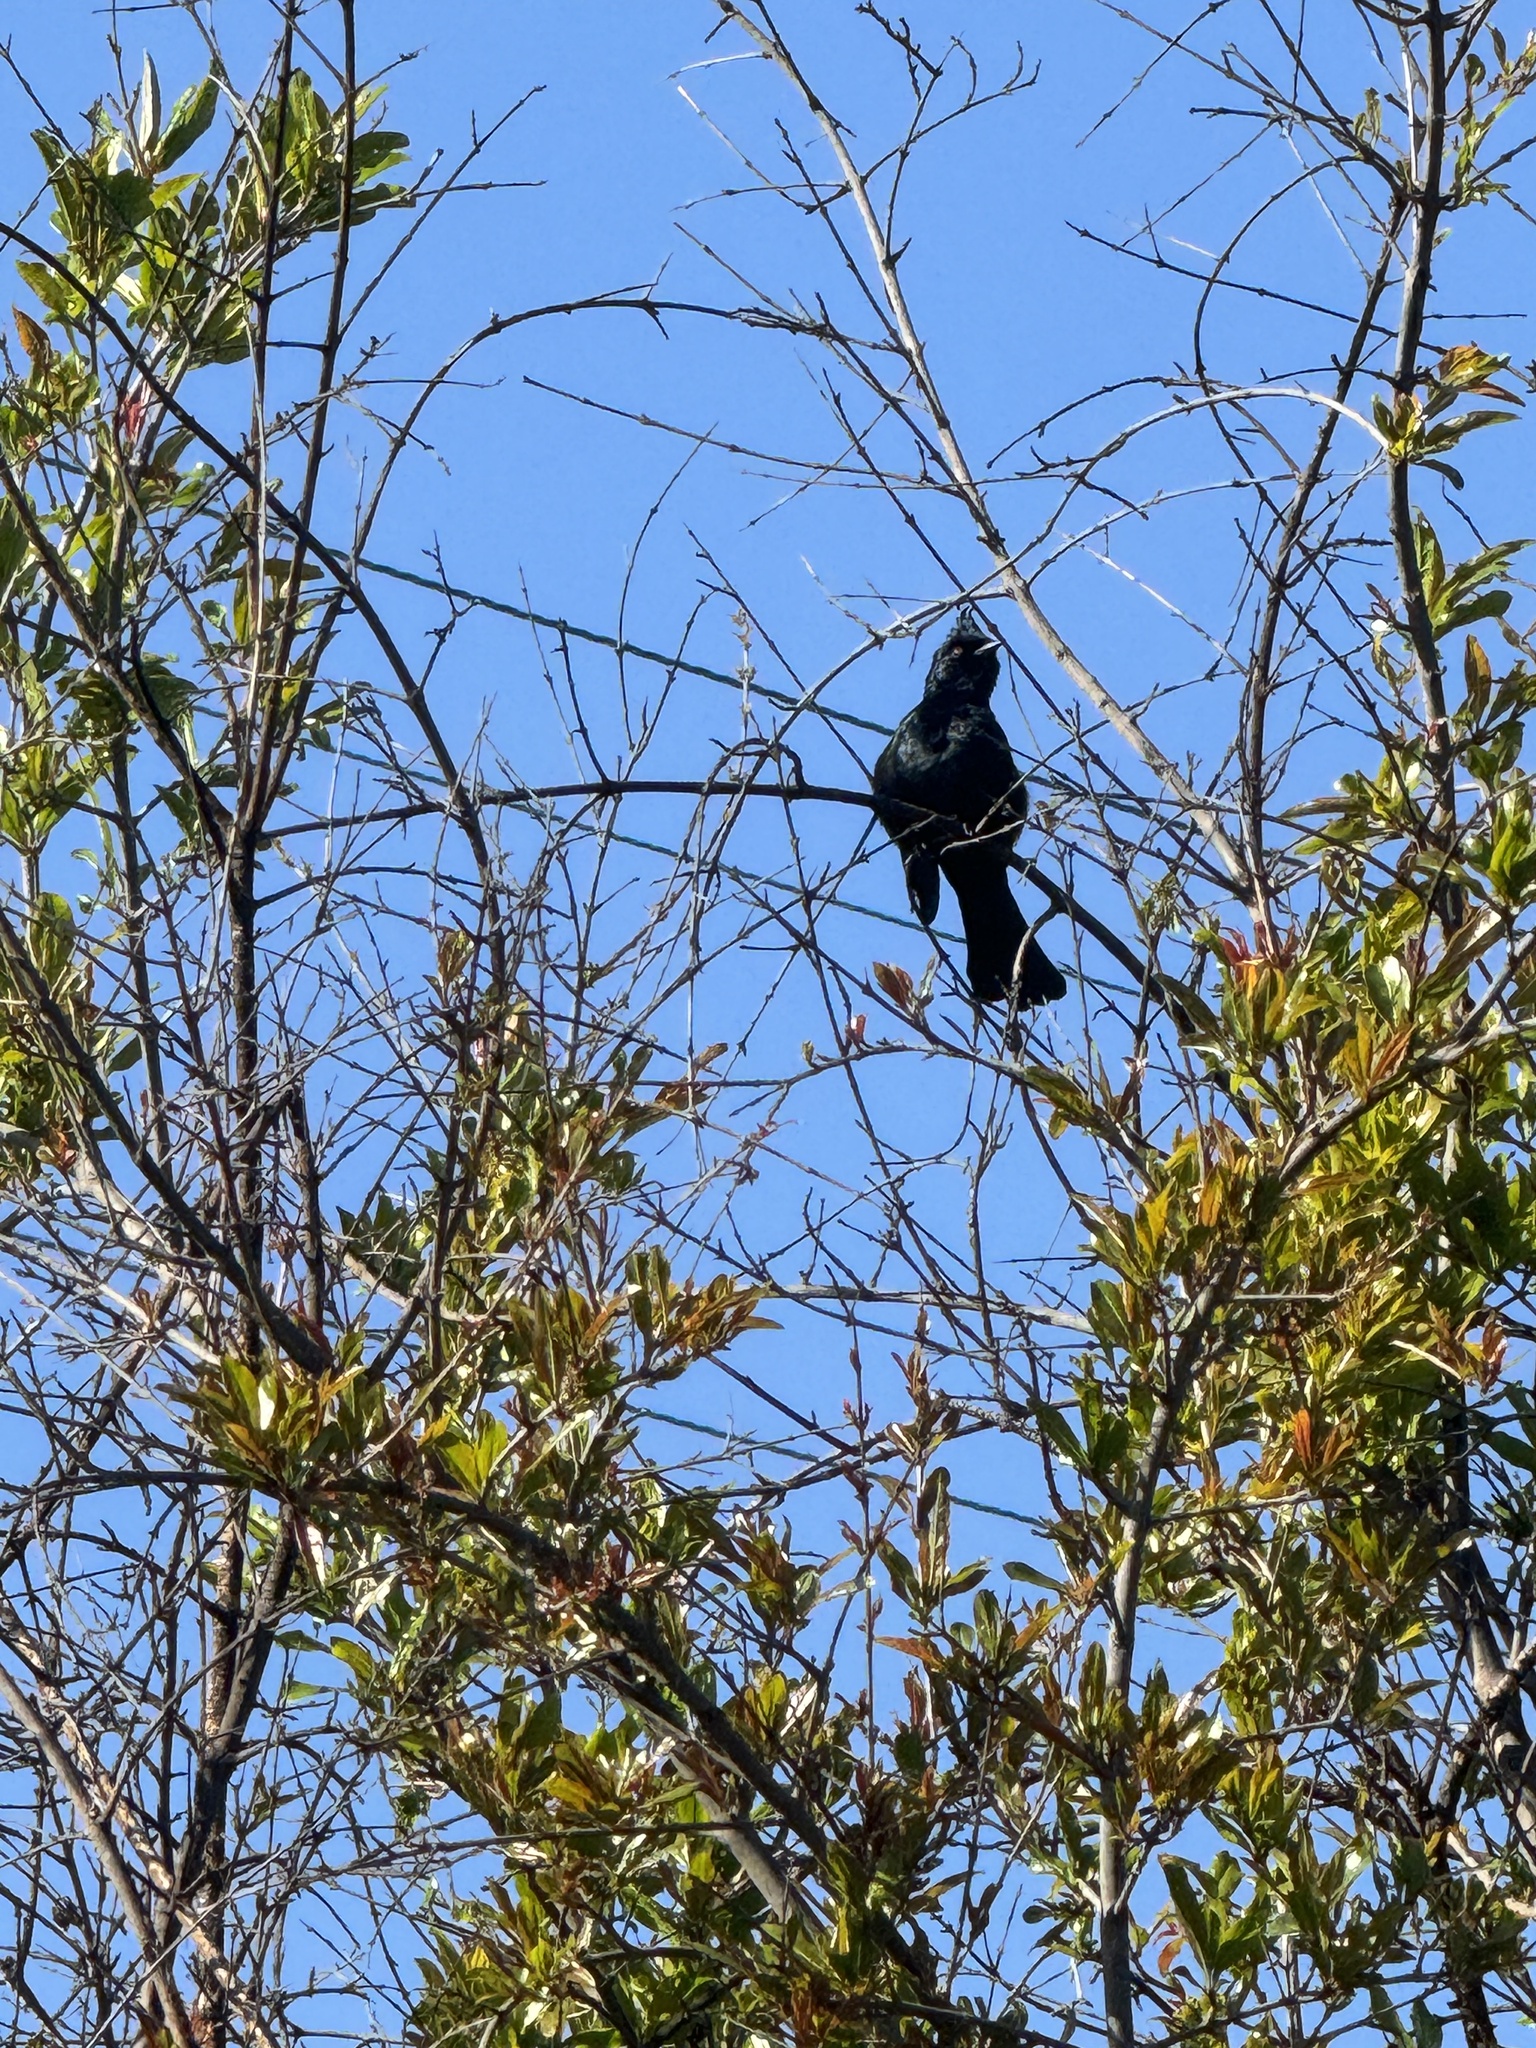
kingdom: Animalia
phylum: Chordata
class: Aves
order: Passeriformes
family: Ptilogonatidae
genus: Phainopepla
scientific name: Phainopepla nitens
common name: Phainopepla
